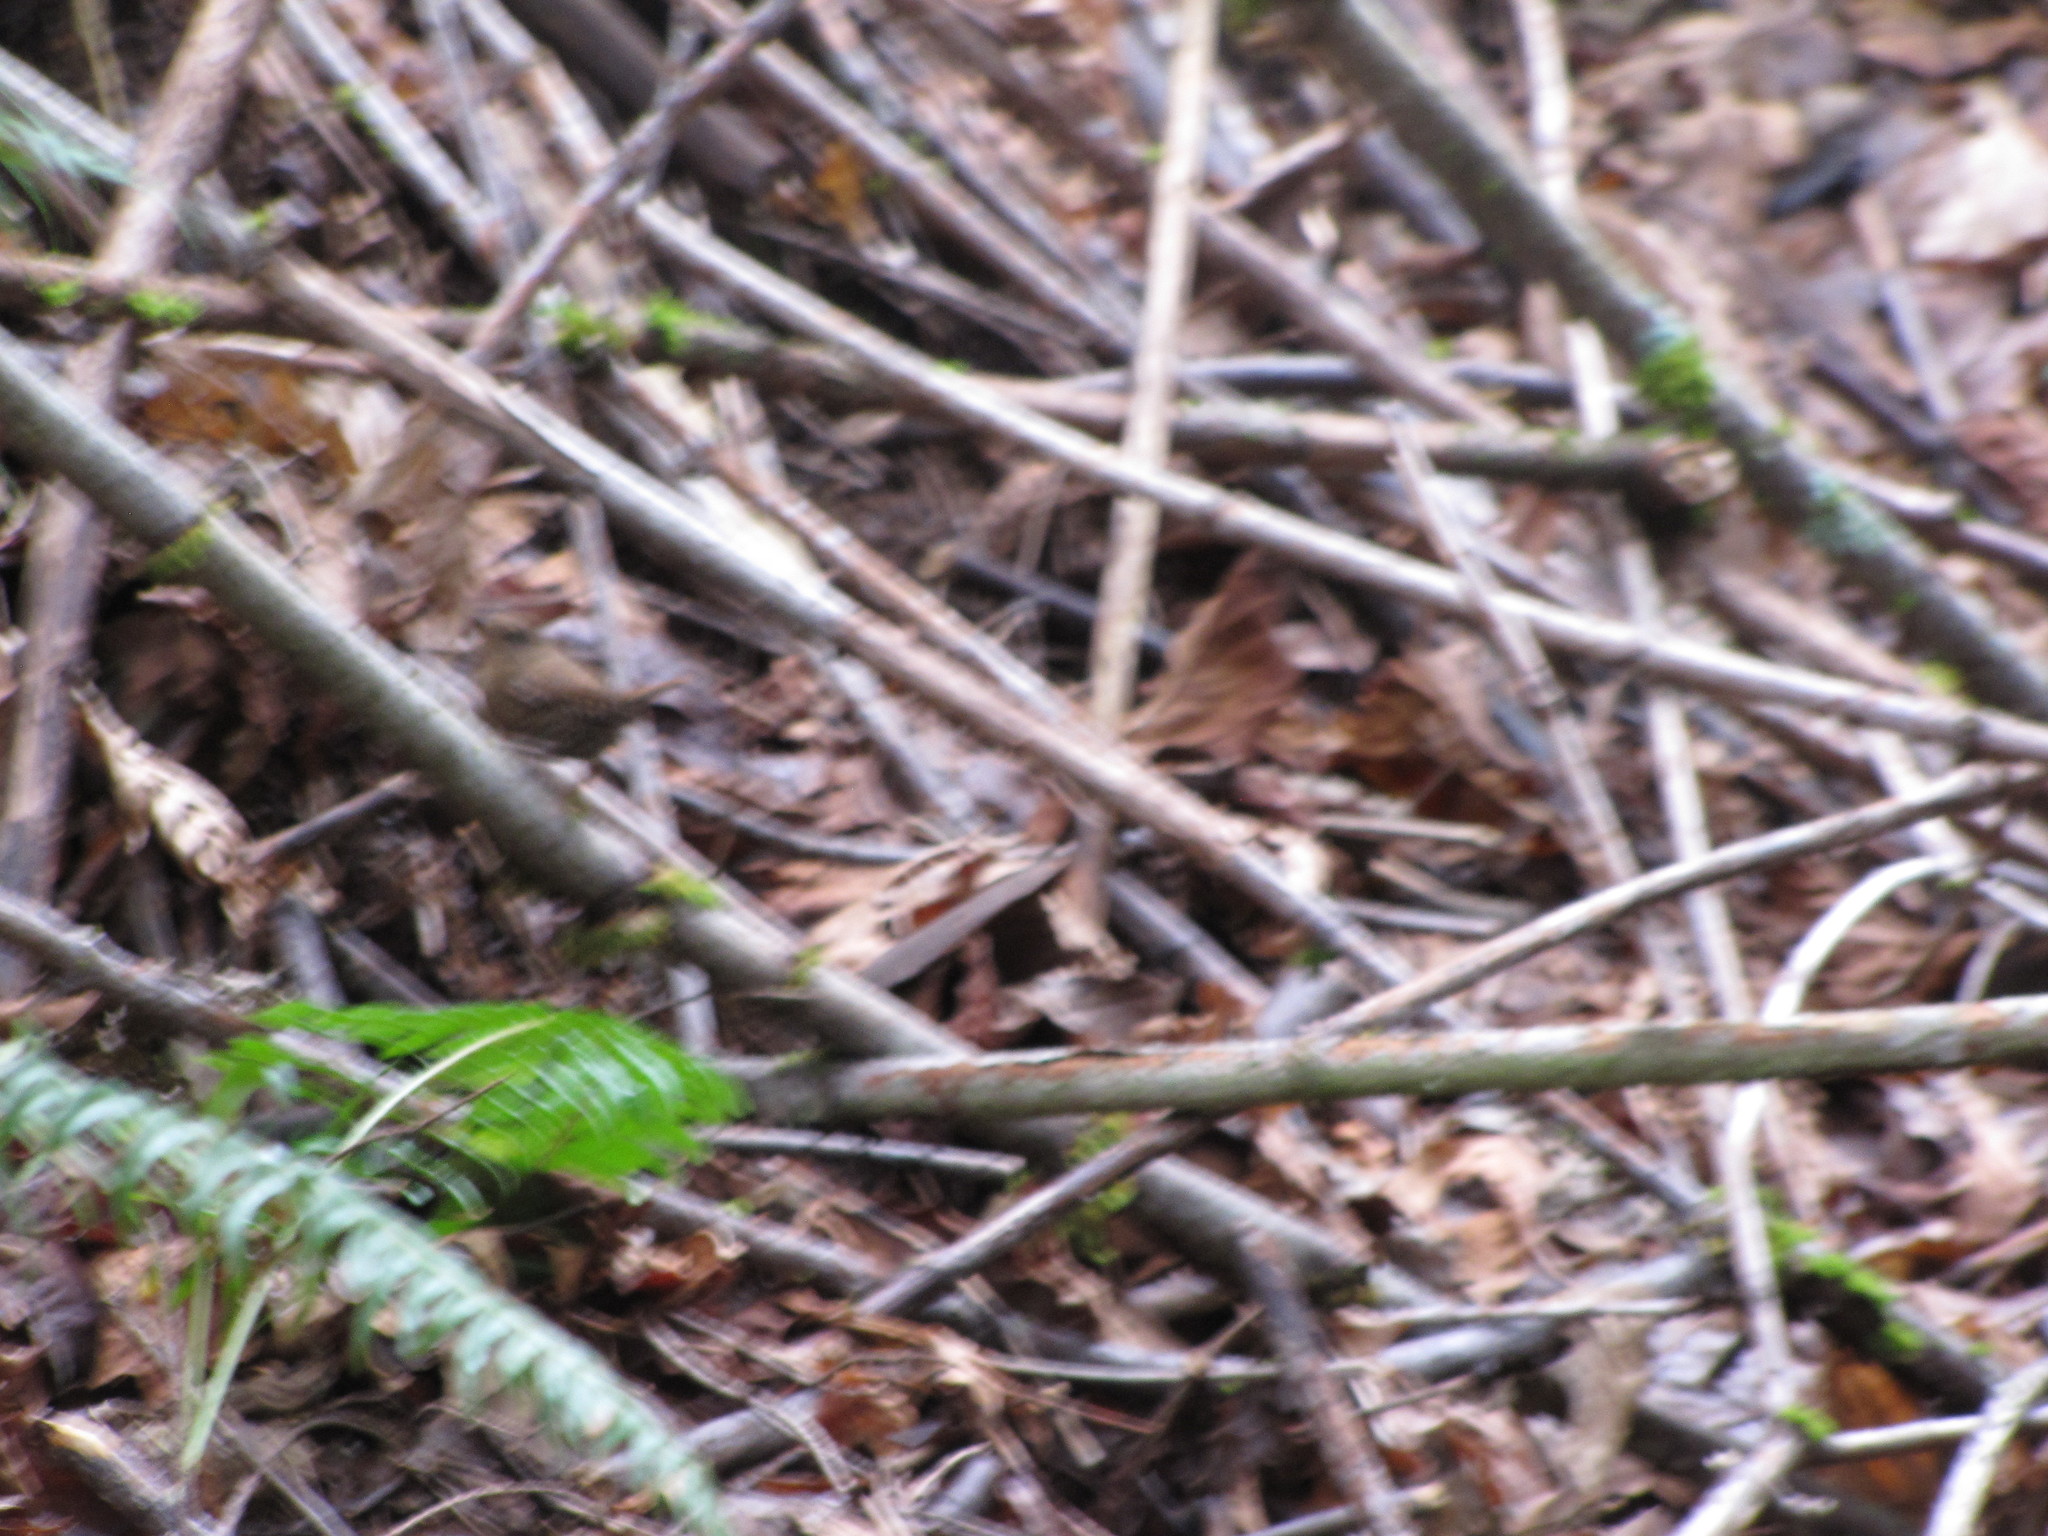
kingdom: Animalia
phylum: Chordata
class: Aves
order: Passeriformes
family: Troglodytidae
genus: Troglodytes
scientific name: Troglodytes pacificus
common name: Pacific wren
